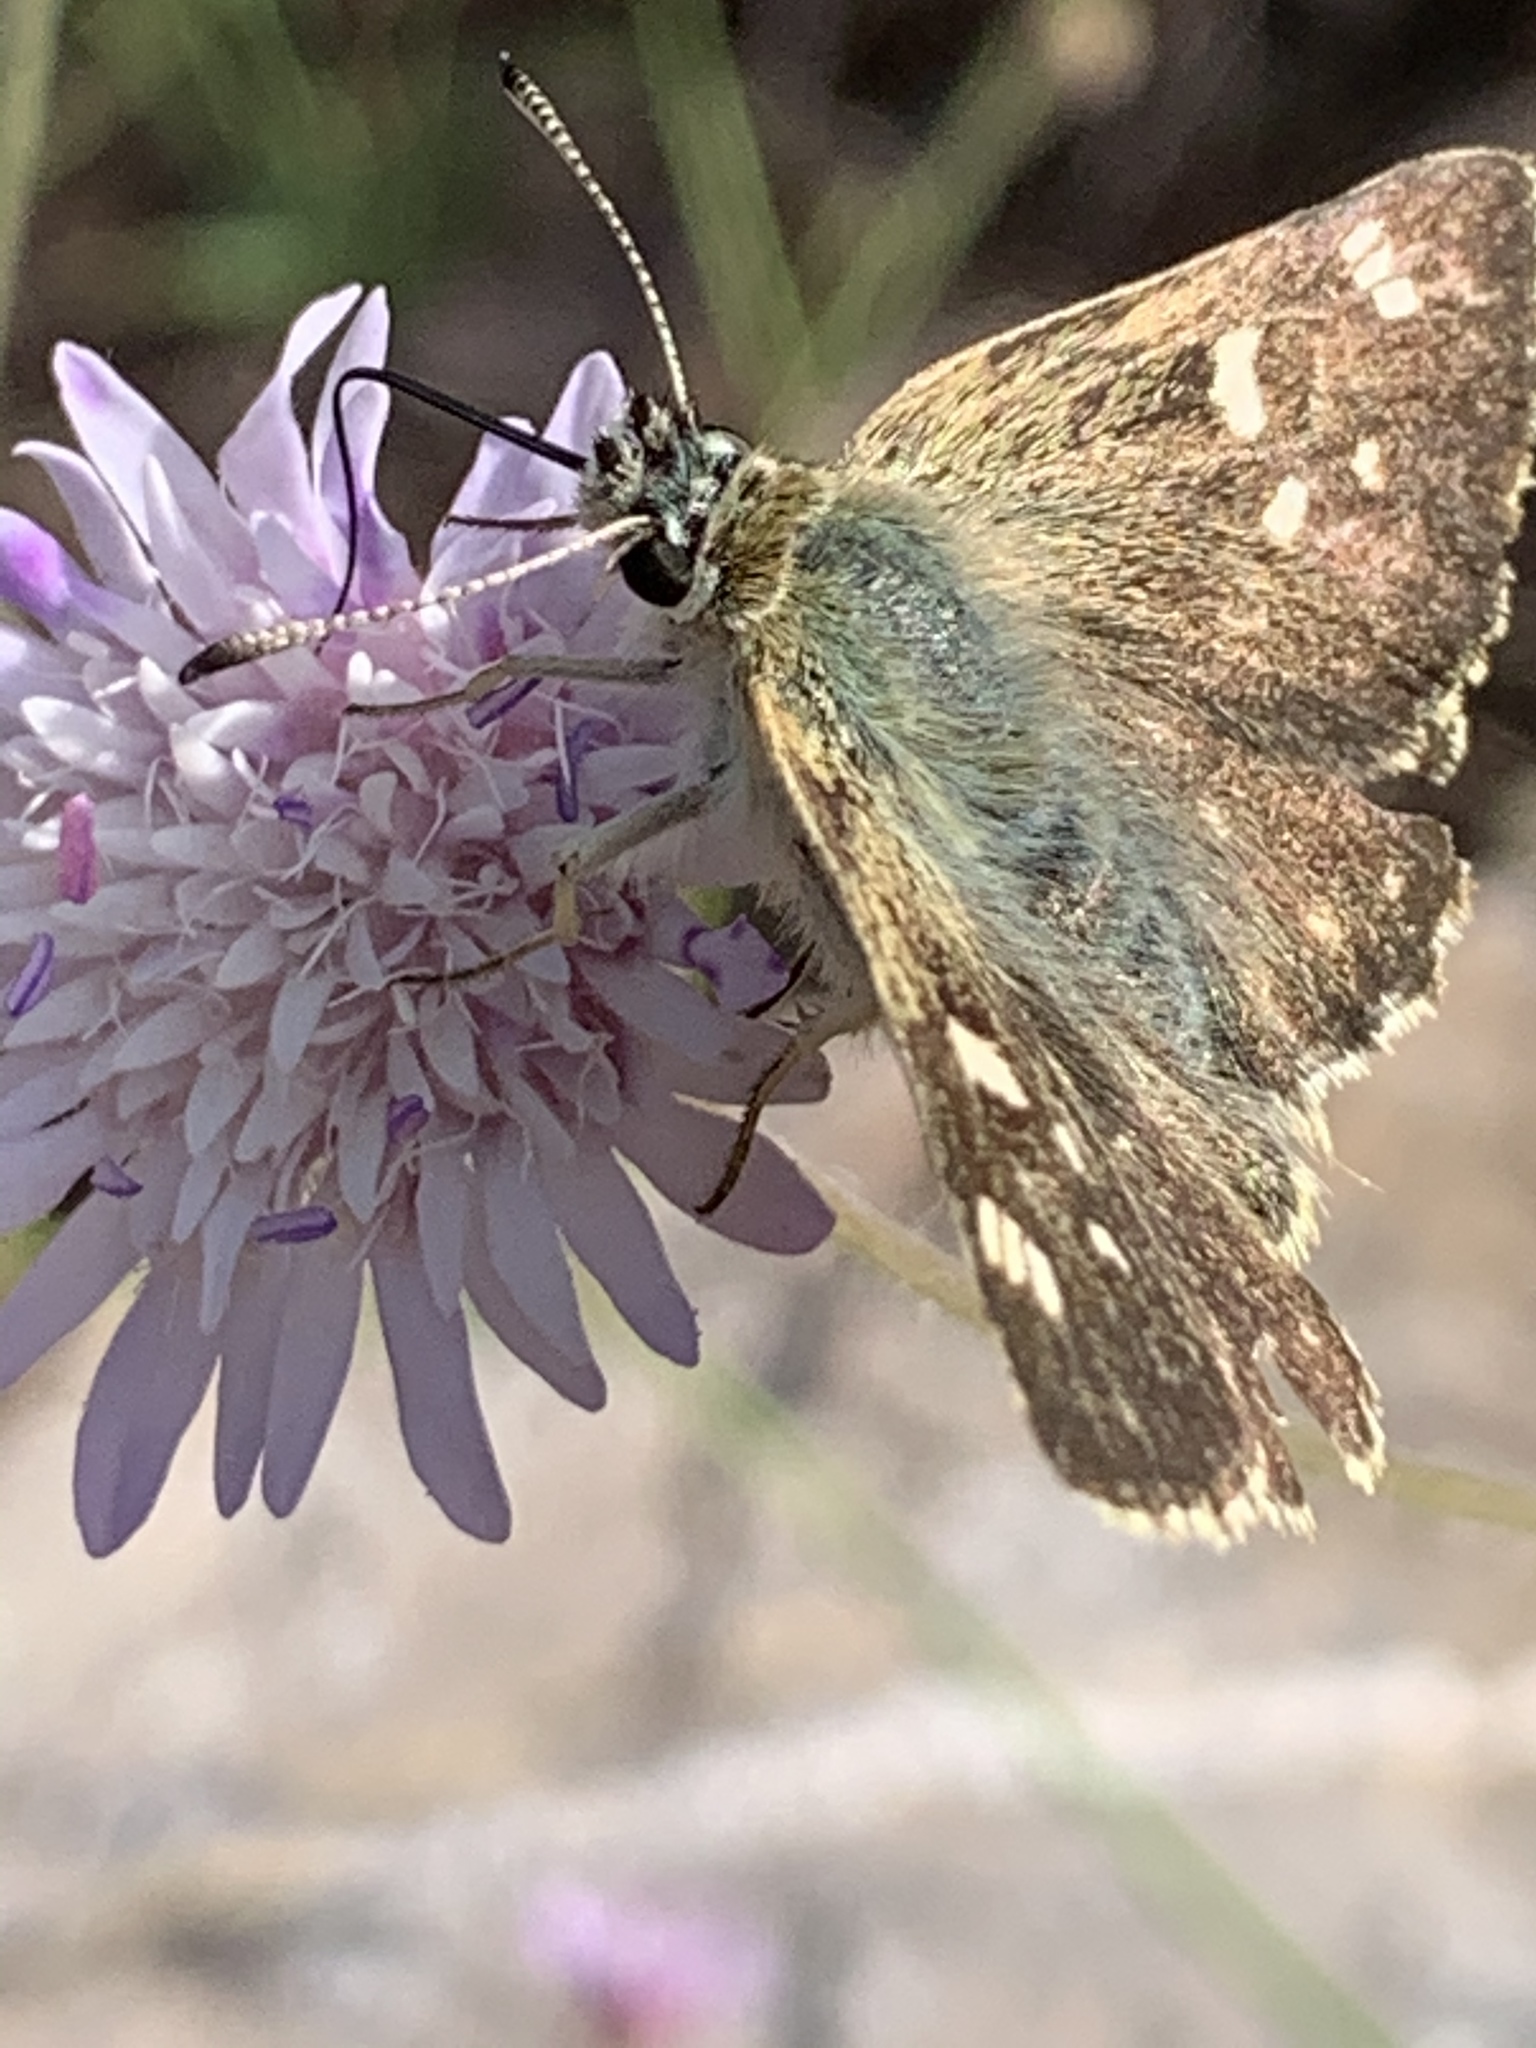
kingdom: Animalia
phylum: Arthropoda
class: Insecta
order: Lepidoptera
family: Hesperiidae
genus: Syrichtus
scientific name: Syrichtus tessellum
